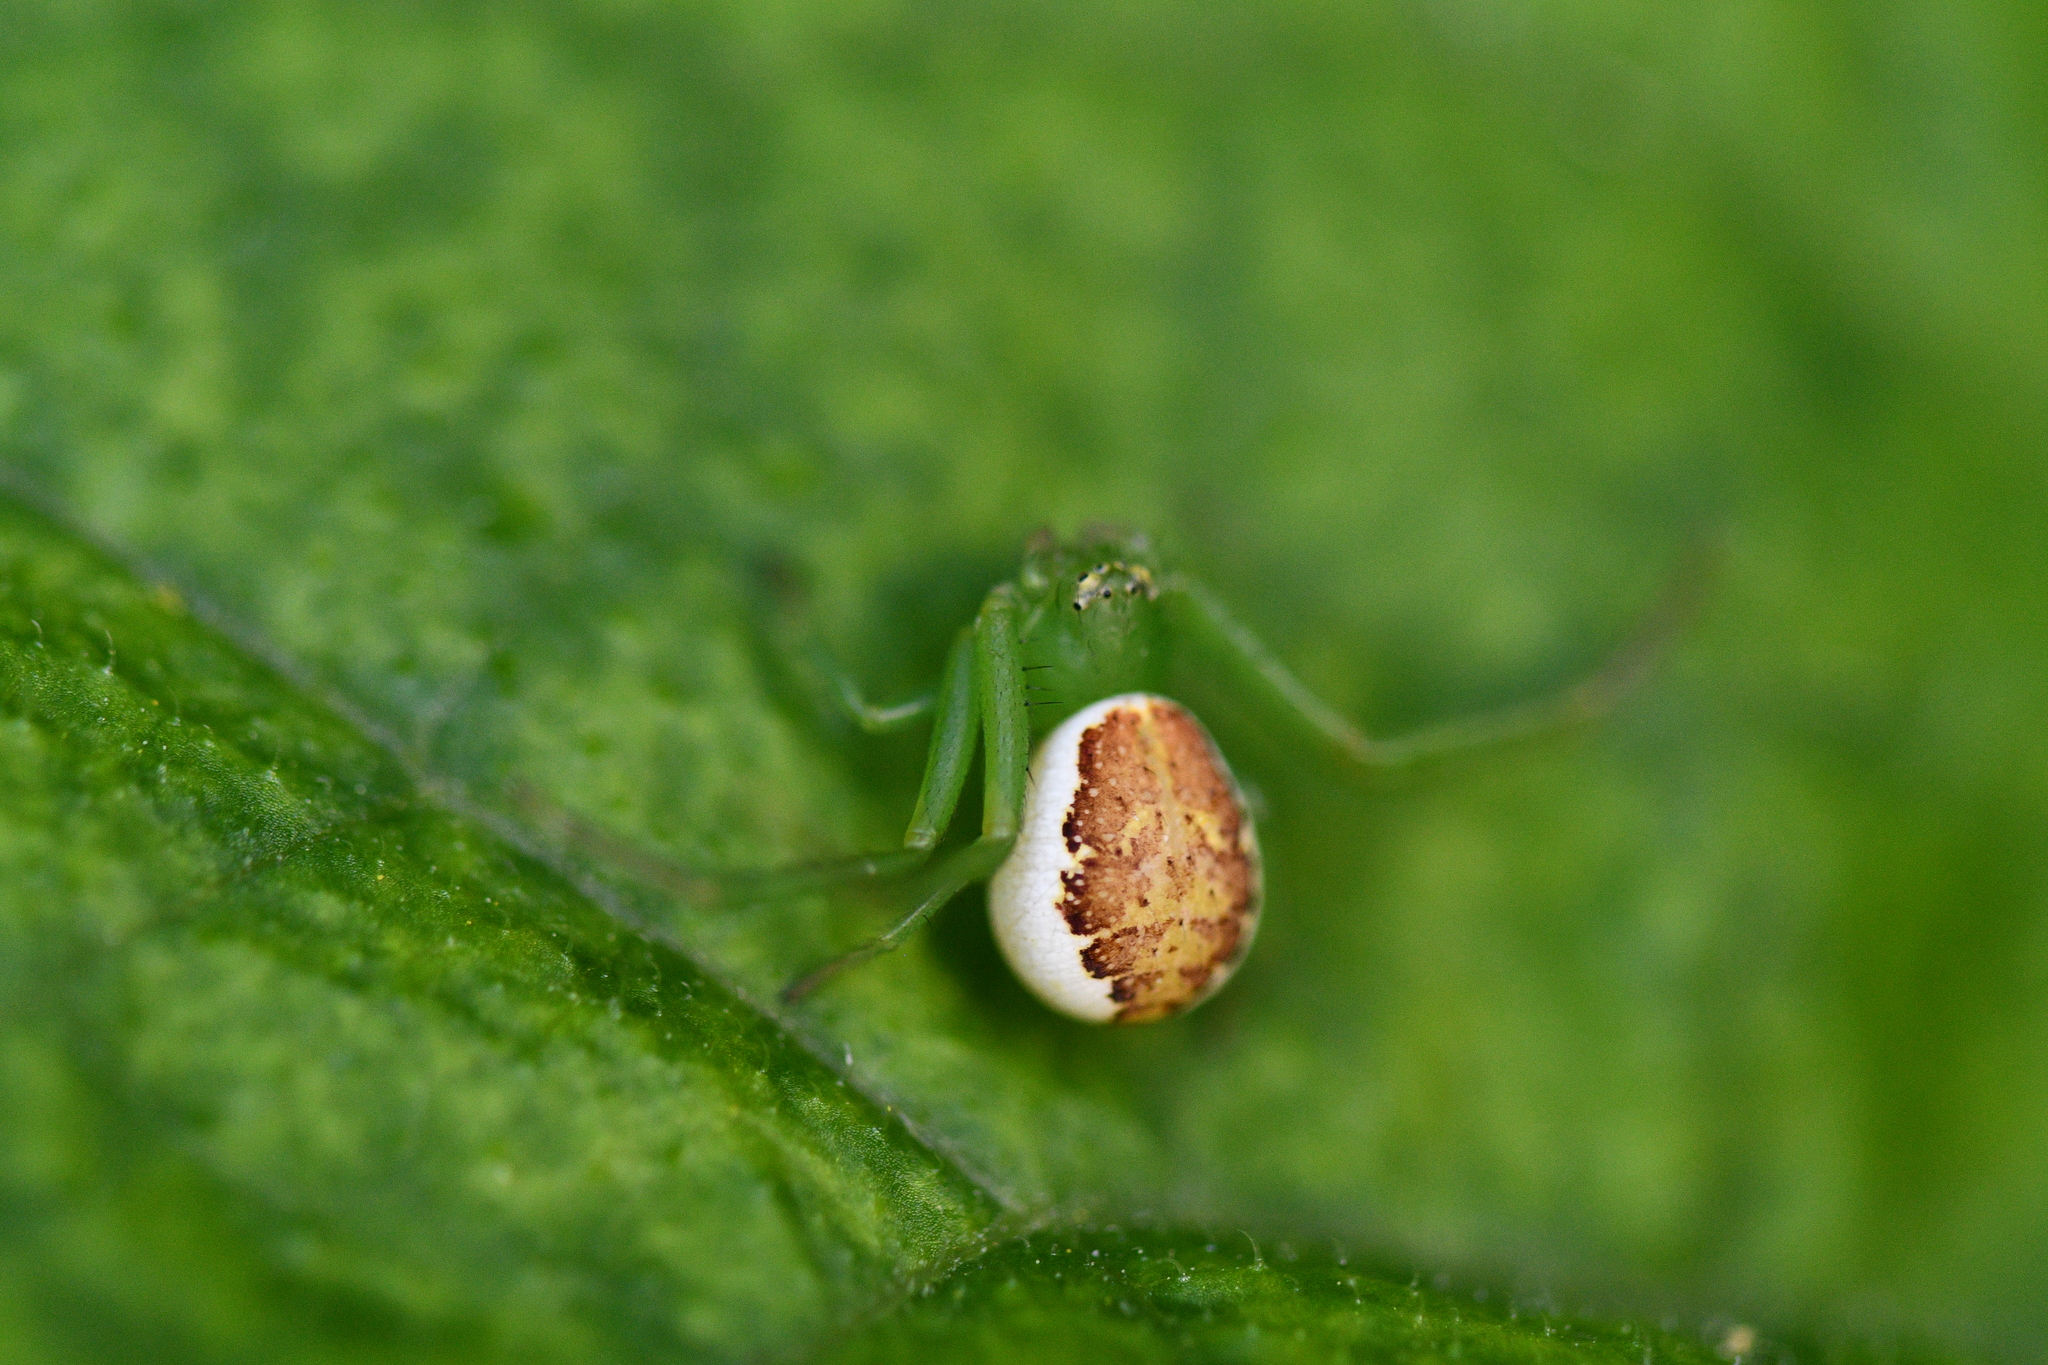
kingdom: Animalia
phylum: Arthropoda
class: Arachnida
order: Araneae
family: Thomisidae
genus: Diaea
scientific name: Diaea dorsata
